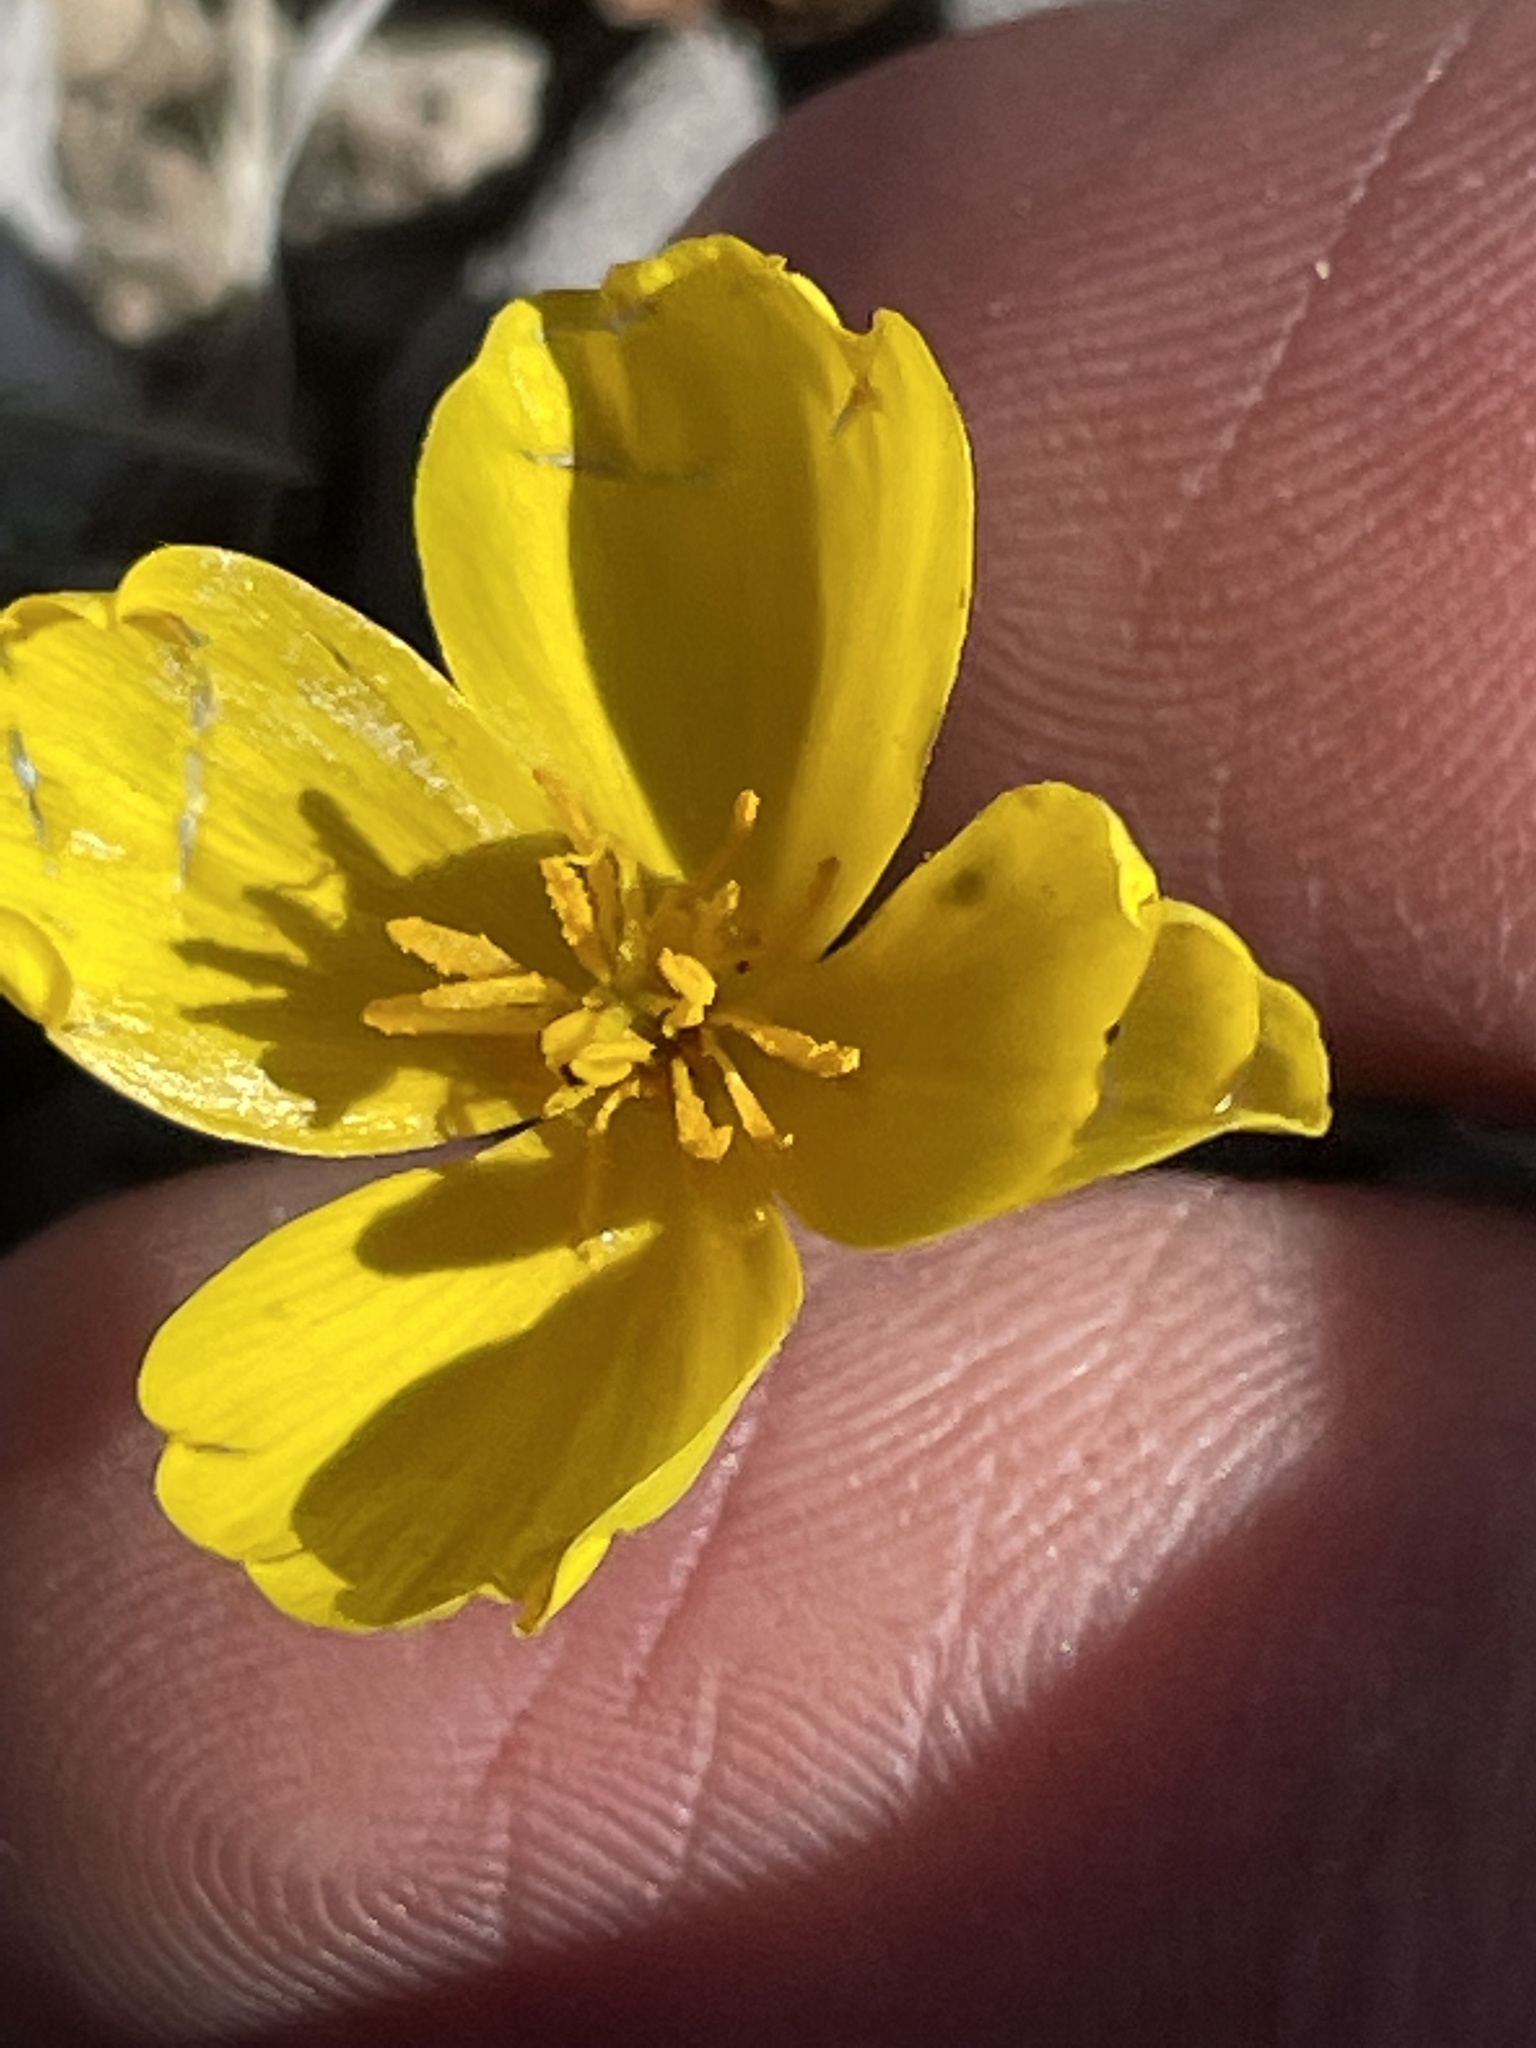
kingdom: Plantae
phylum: Tracheophyta
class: Magnoliopsida
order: Ranunculales
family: Papaveraceae
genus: Eschscholzia
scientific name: Eschscholzia glyptosperma
